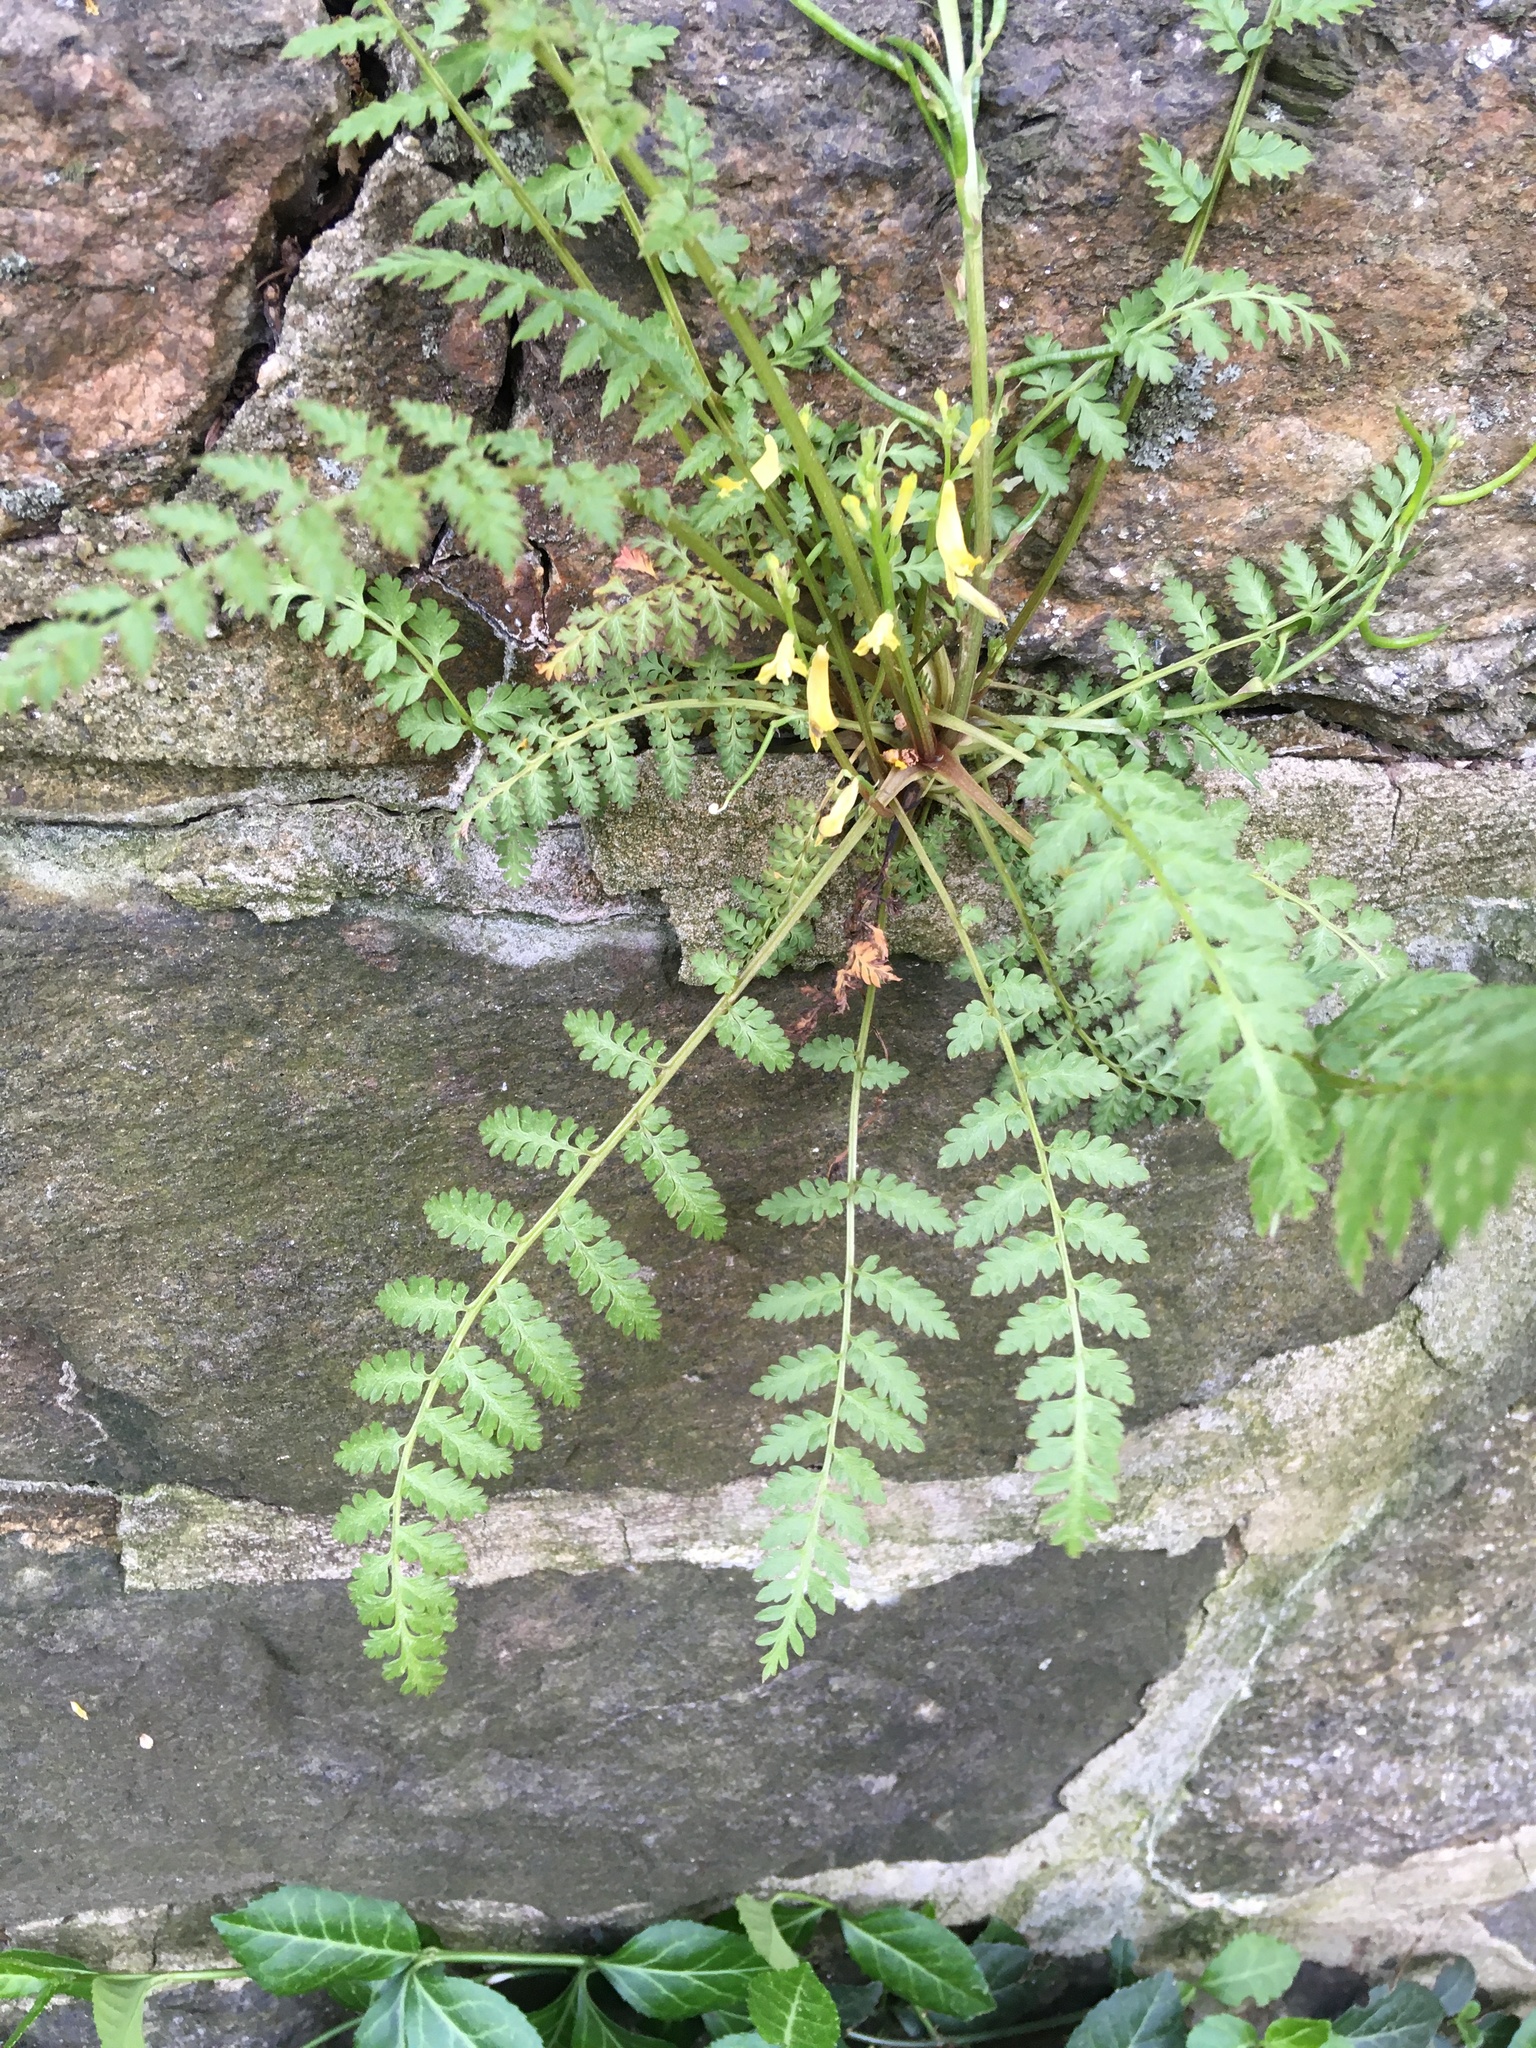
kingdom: Plantae
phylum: Tracheophyta
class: Magnoliopsida
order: Ranunculales
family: Papaveraceae
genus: Corydalis
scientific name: Corydalis cheilanthifolia
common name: Fern-leaved corydalis
